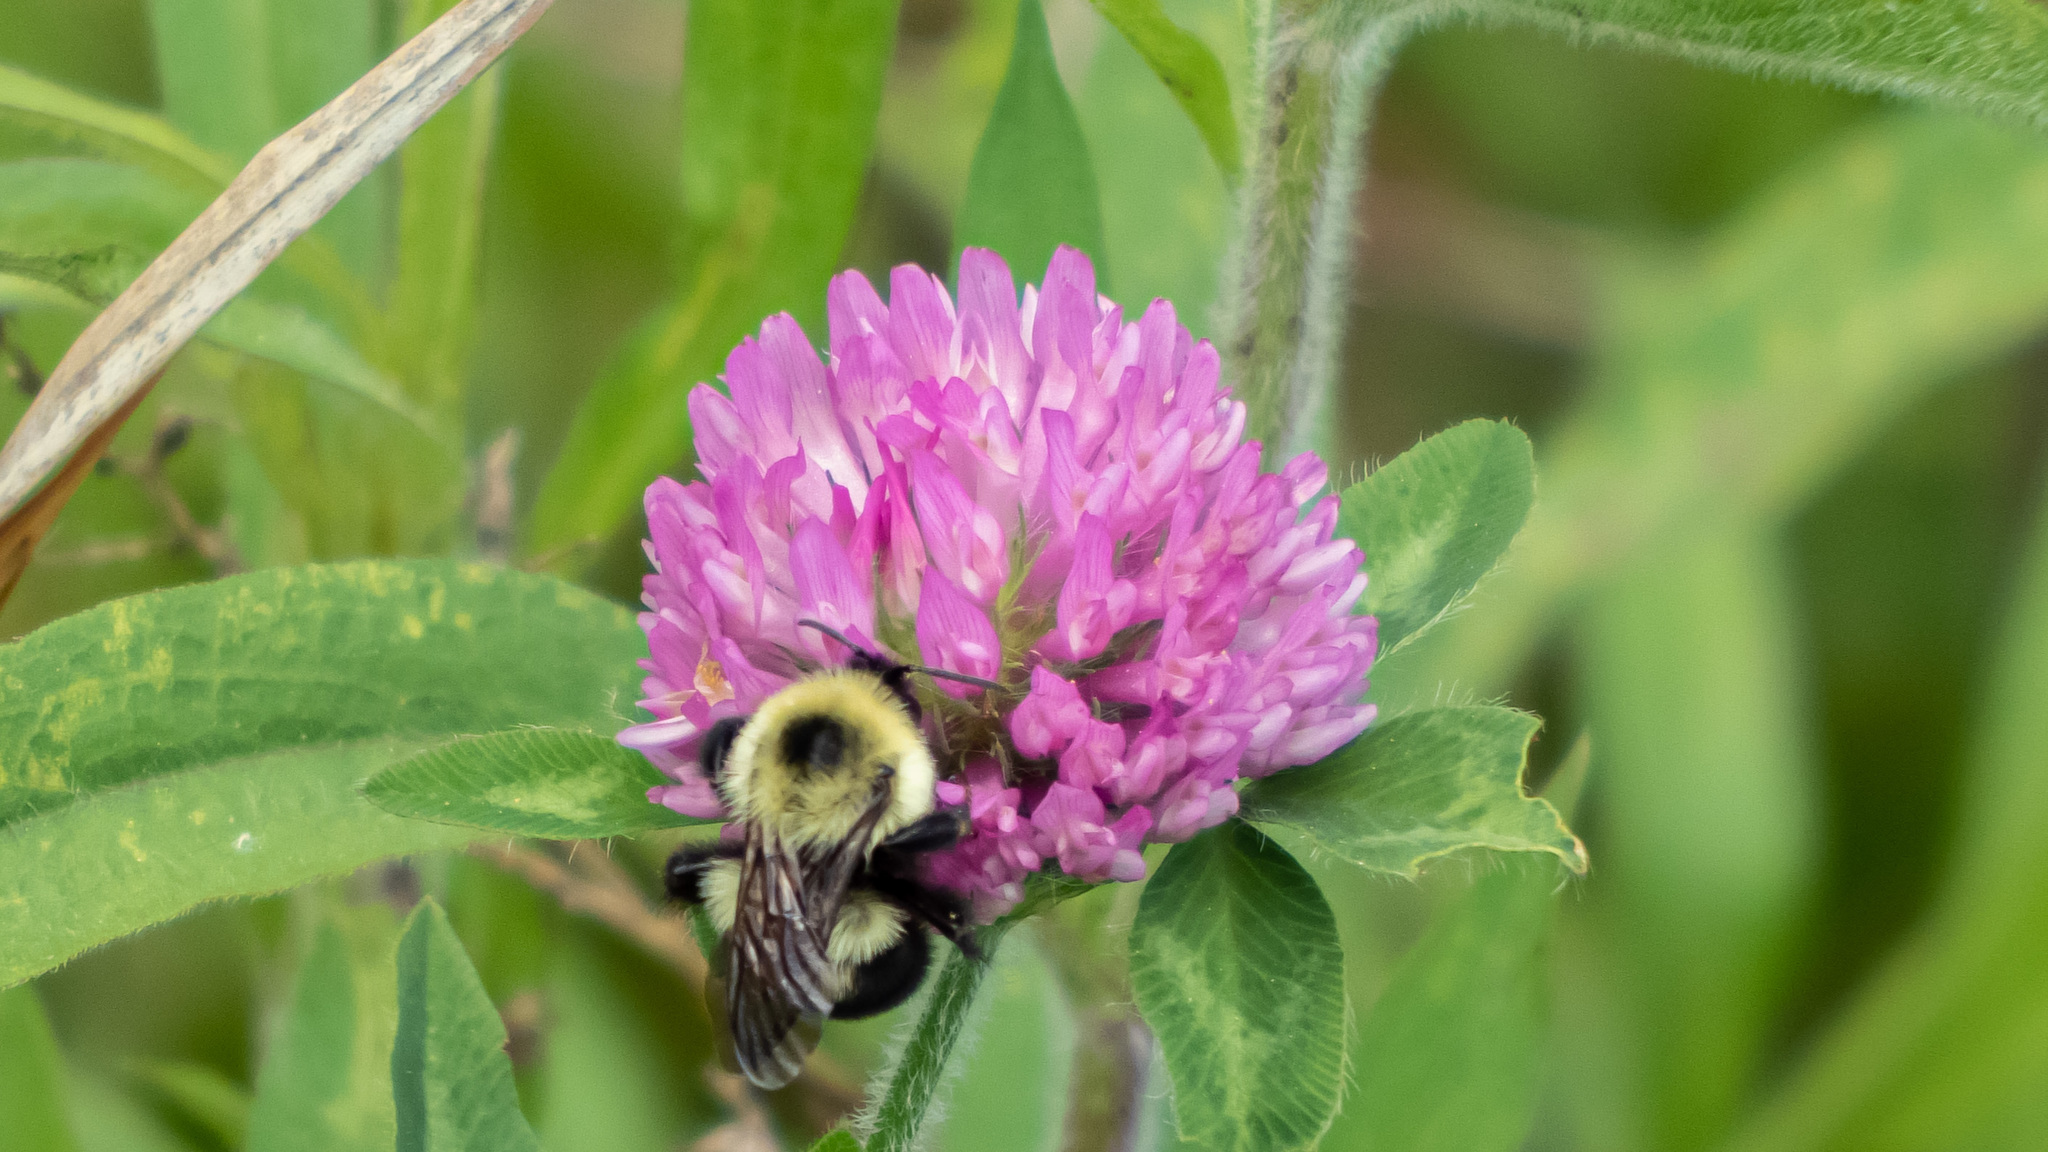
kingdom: Animalia
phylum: Arthropoda
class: Insecta
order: Hymenoptera
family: Apidae
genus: Bombus
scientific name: Bombus bimaculatus
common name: Two-spotted bumble bee
